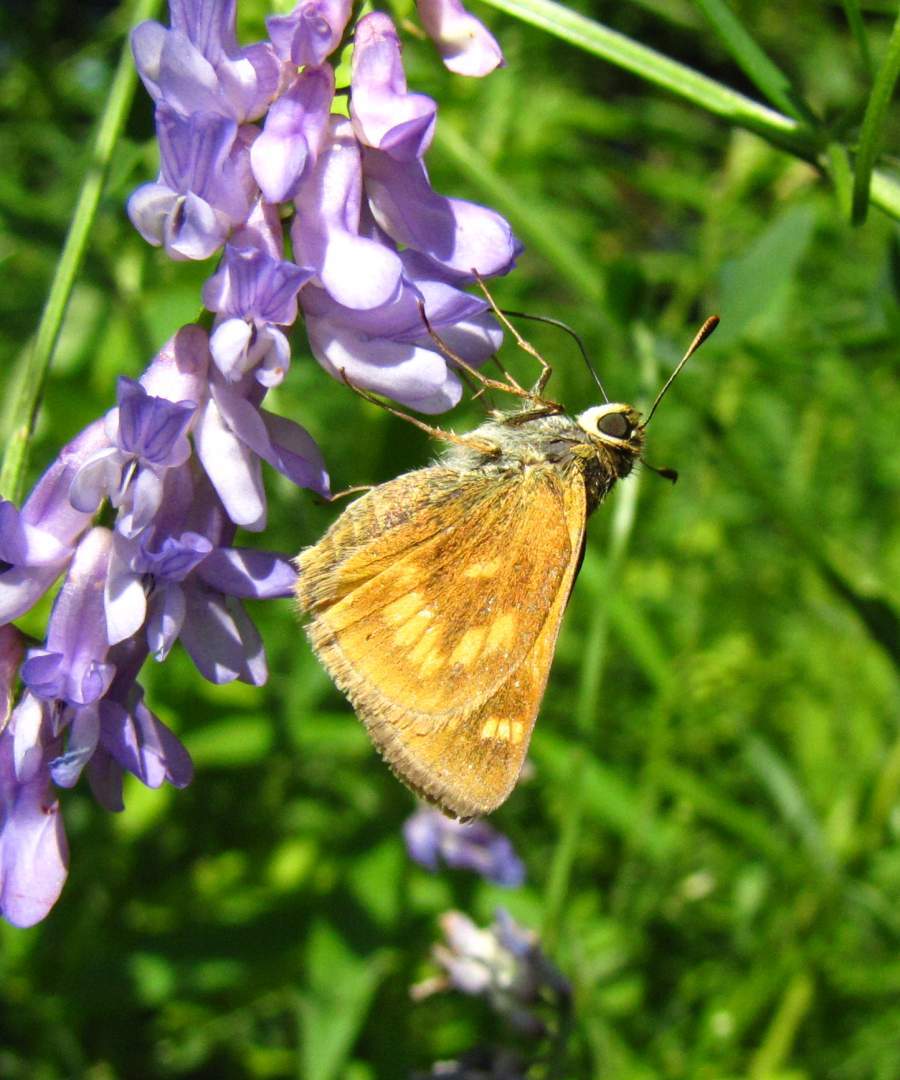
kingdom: Animalia
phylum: Arthropoda
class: Insecta
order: Lepidoptera
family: Hesperiidae
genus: Polites
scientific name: Polites mystic
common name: Long dash
